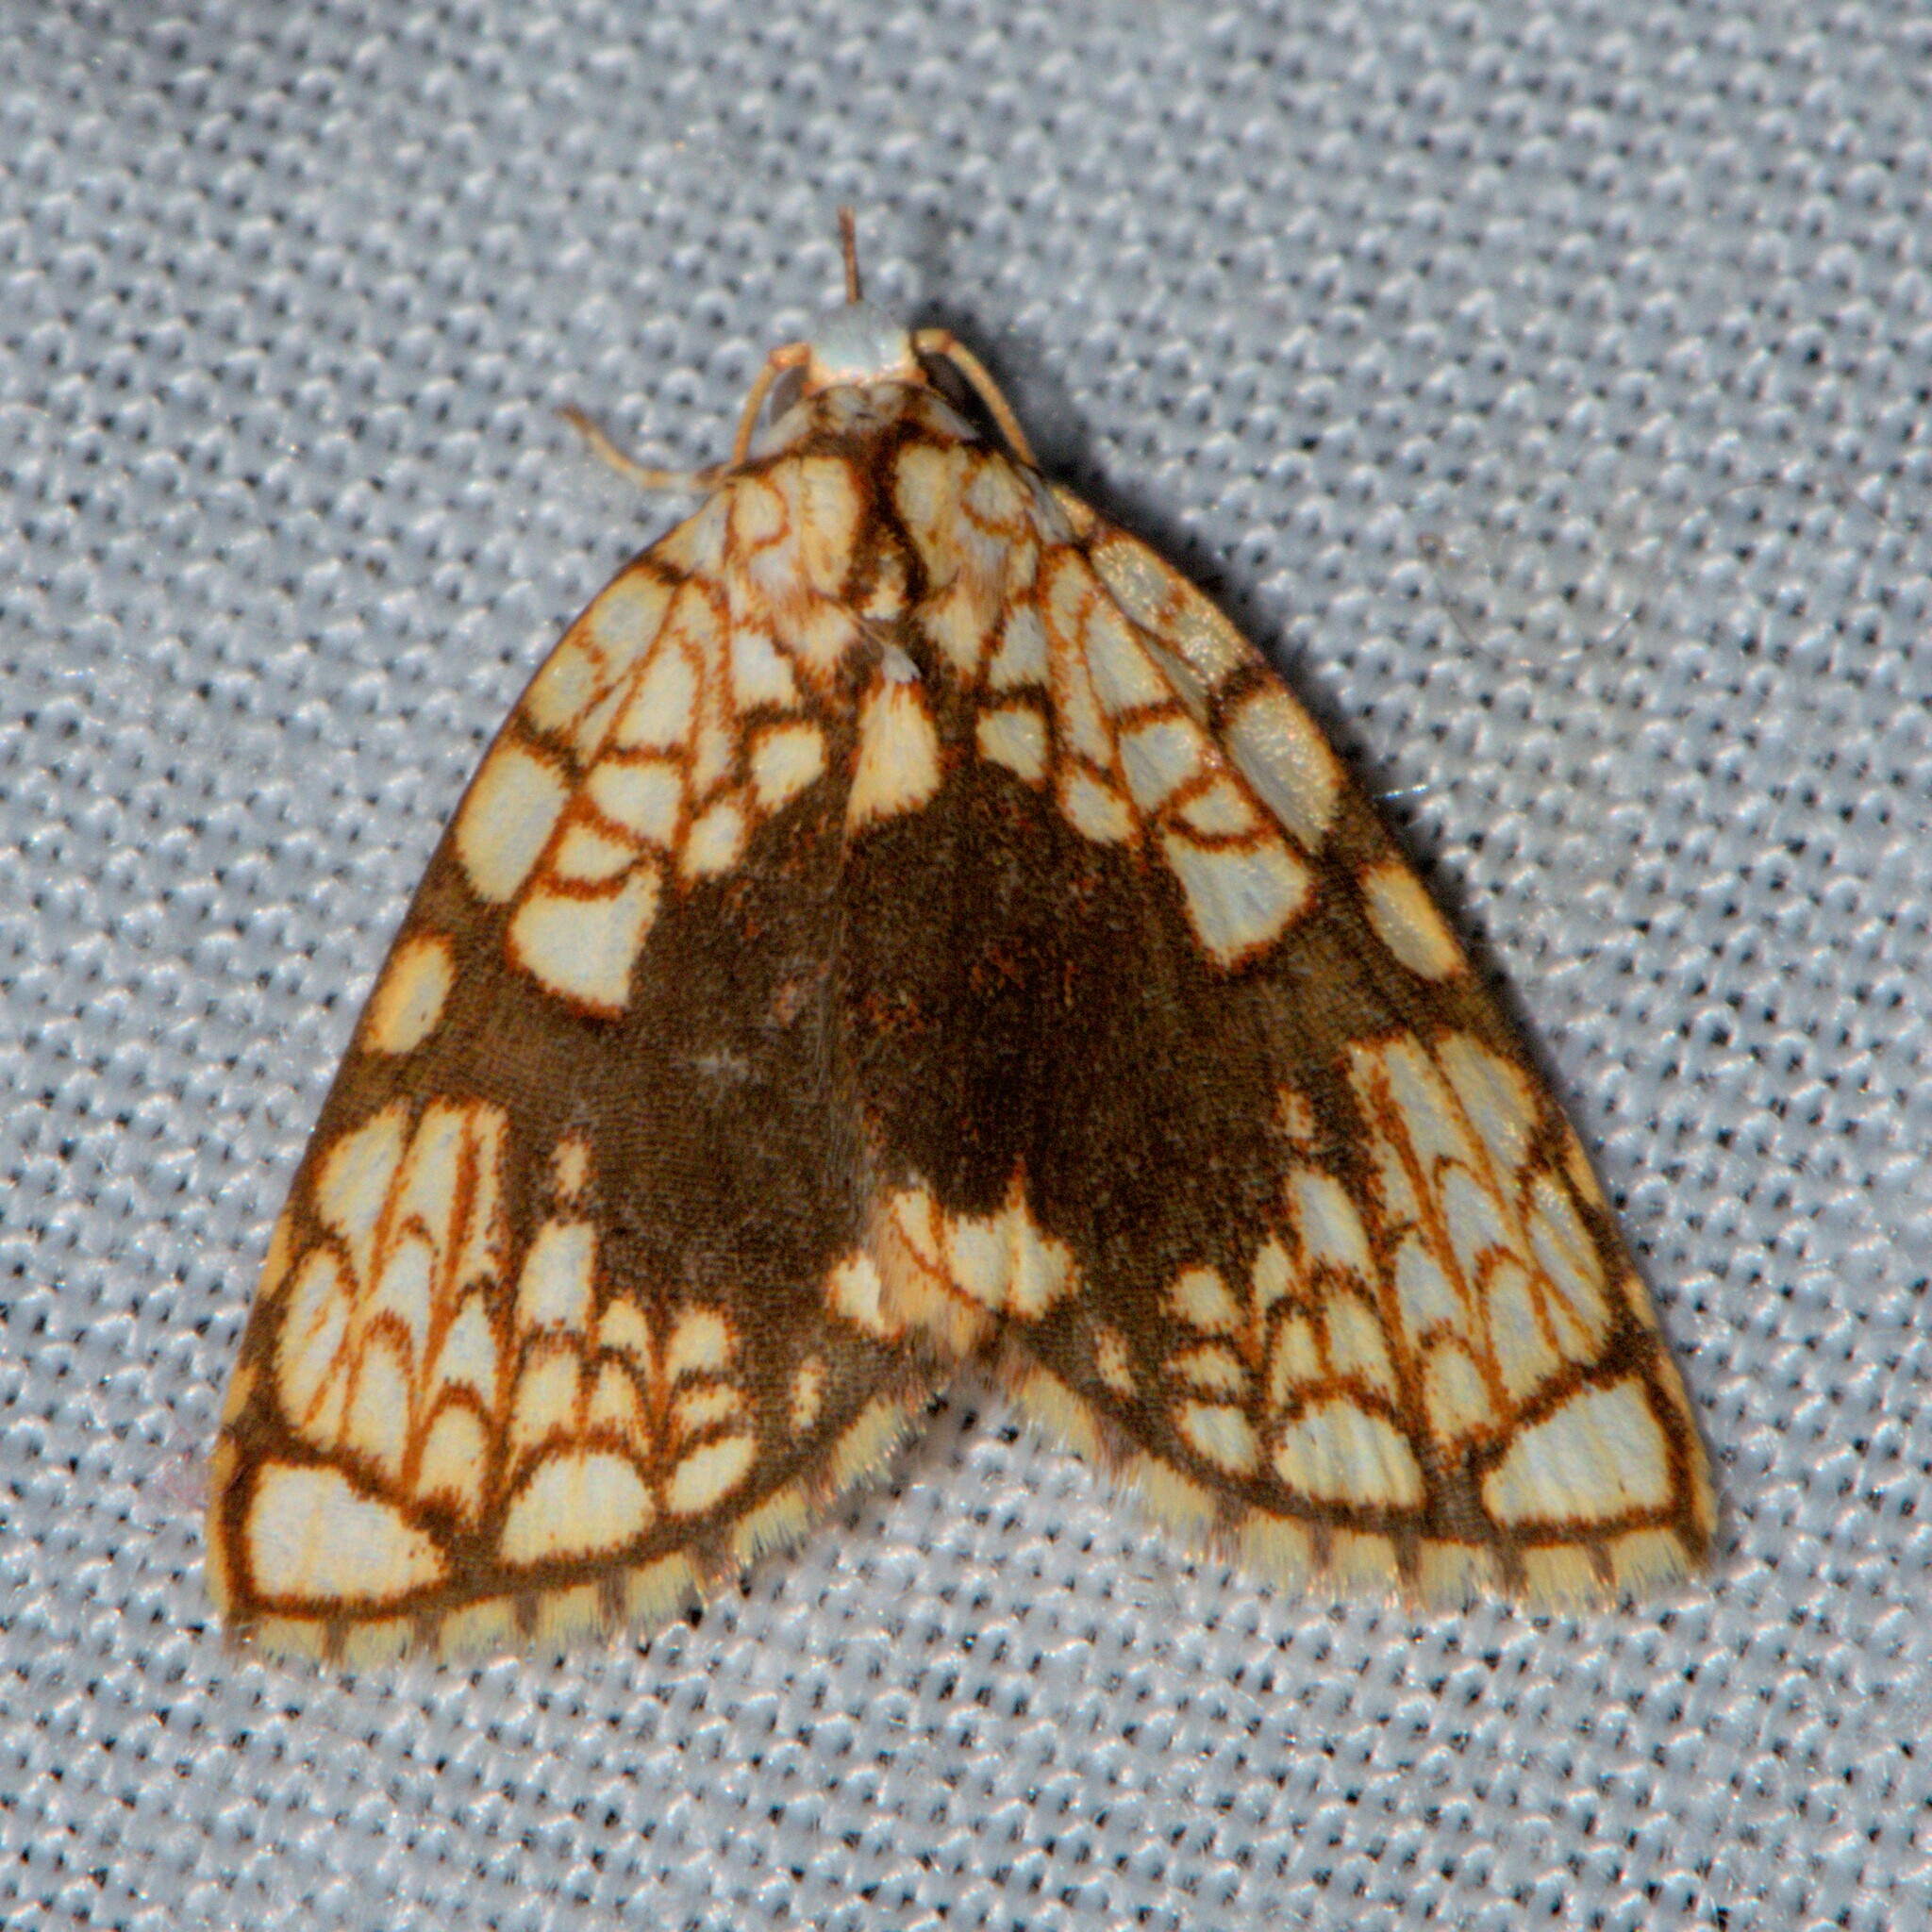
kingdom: Animalia
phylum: Arthropoda
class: Insecta
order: Lepidoptera
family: Nolidae
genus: Gabala
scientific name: Gabala roseoretis
